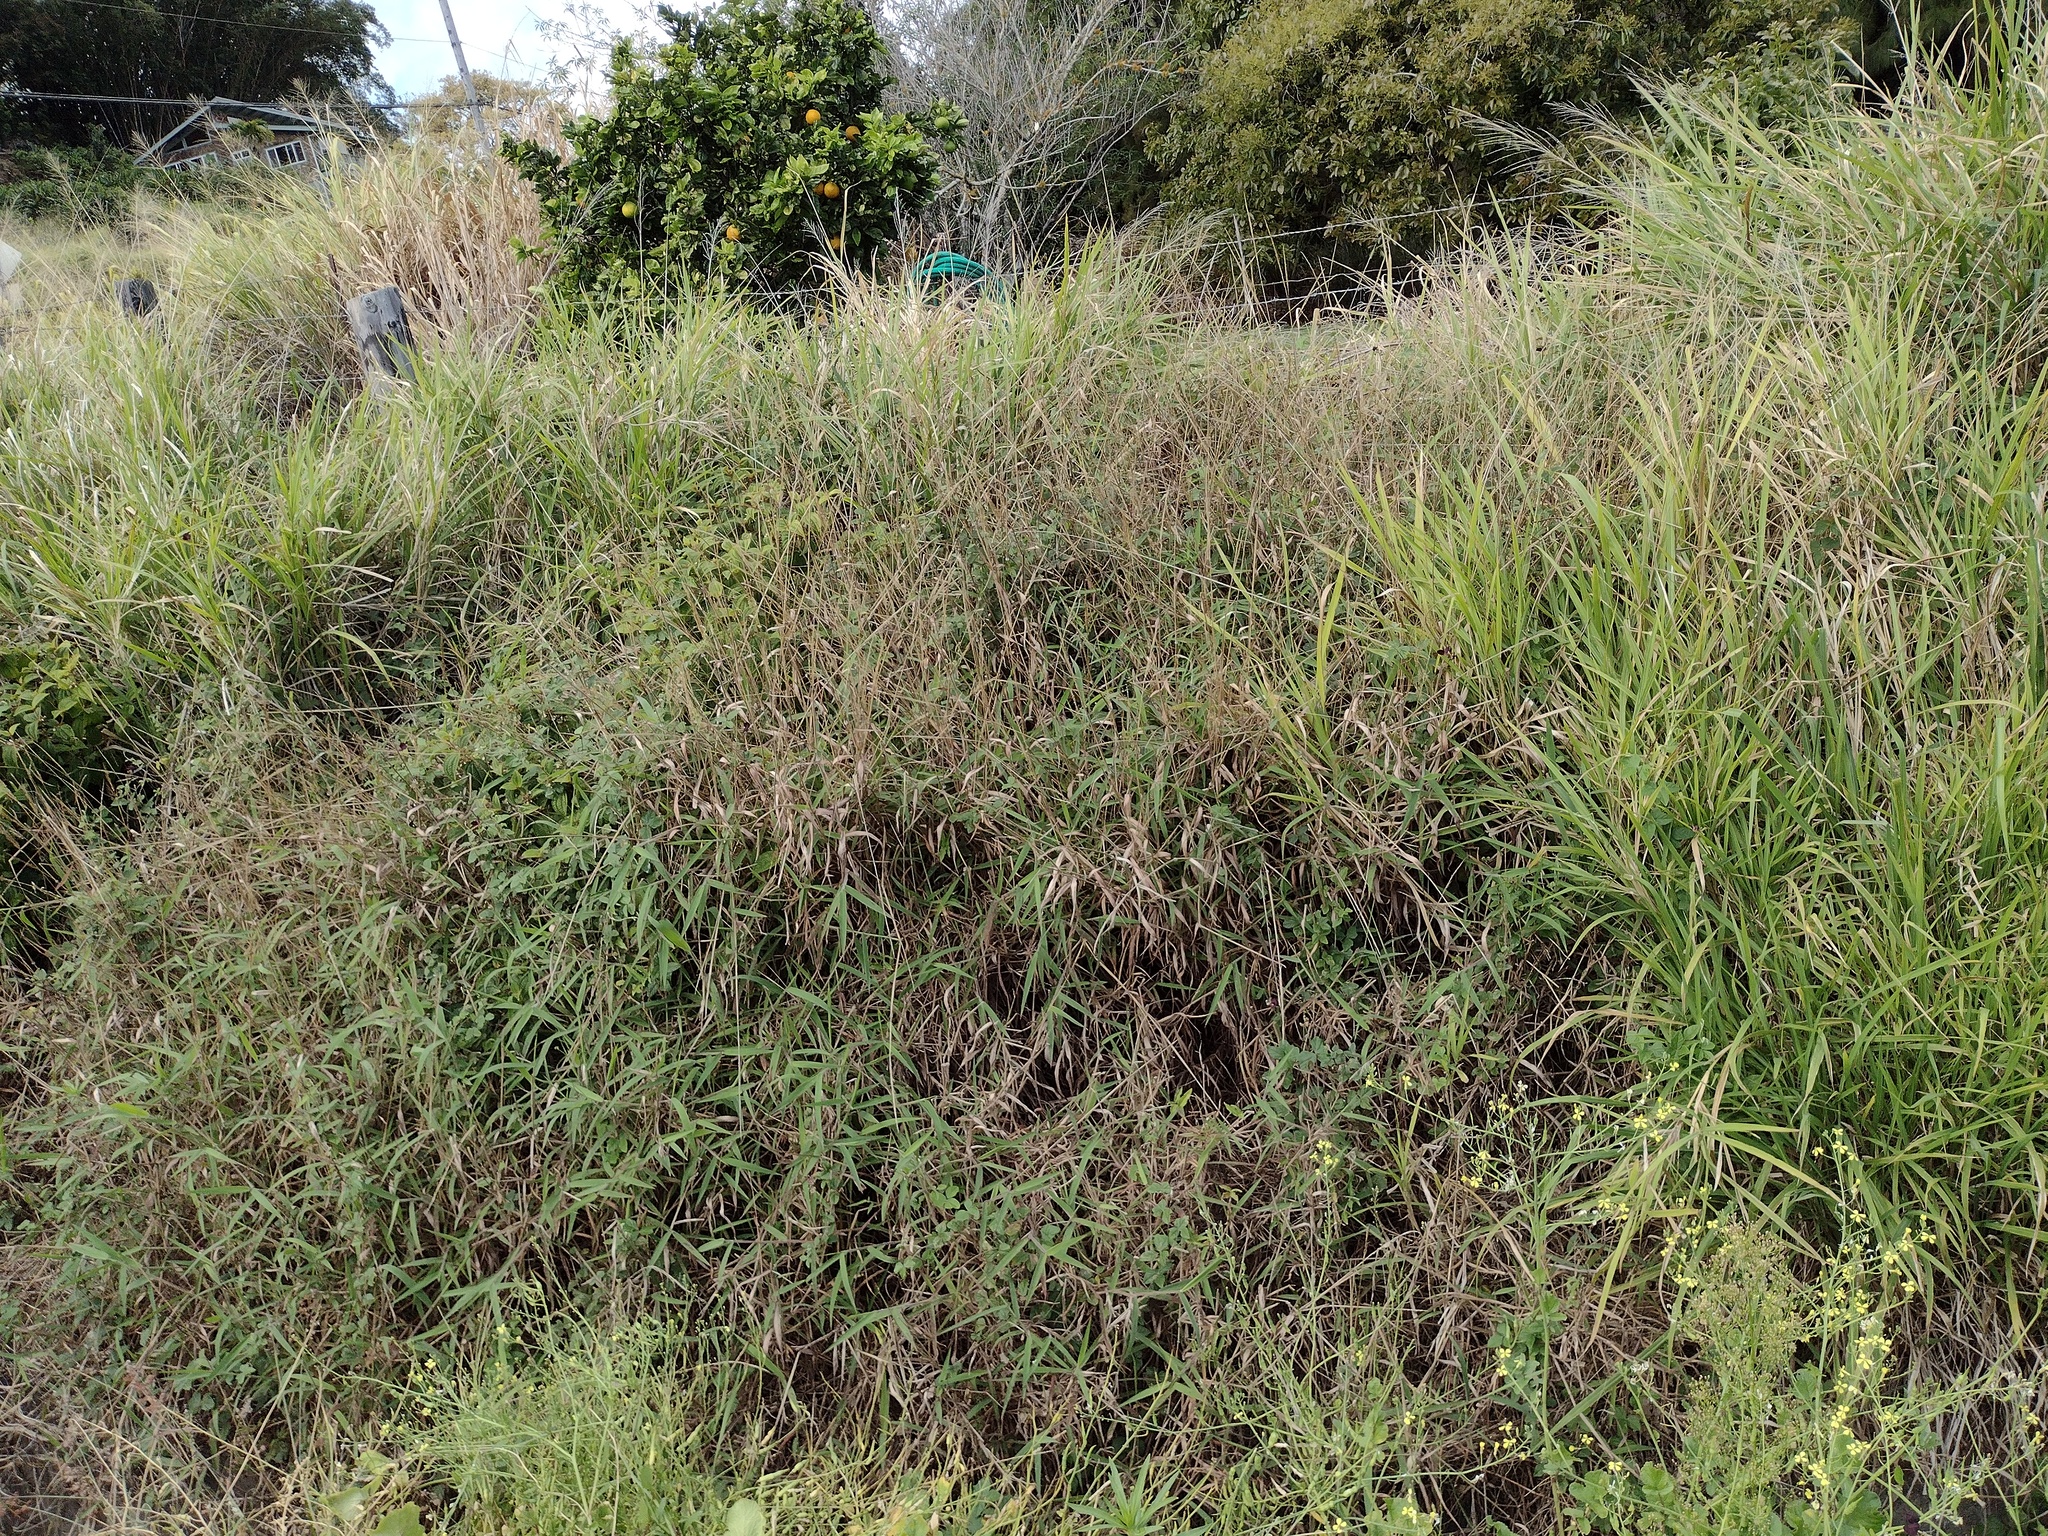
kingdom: Plantae
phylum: Tracheophyta
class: Liliopsida
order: Poales
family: Poaceae
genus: Melinis
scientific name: Melinis minutiflora
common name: Molassesgrass
